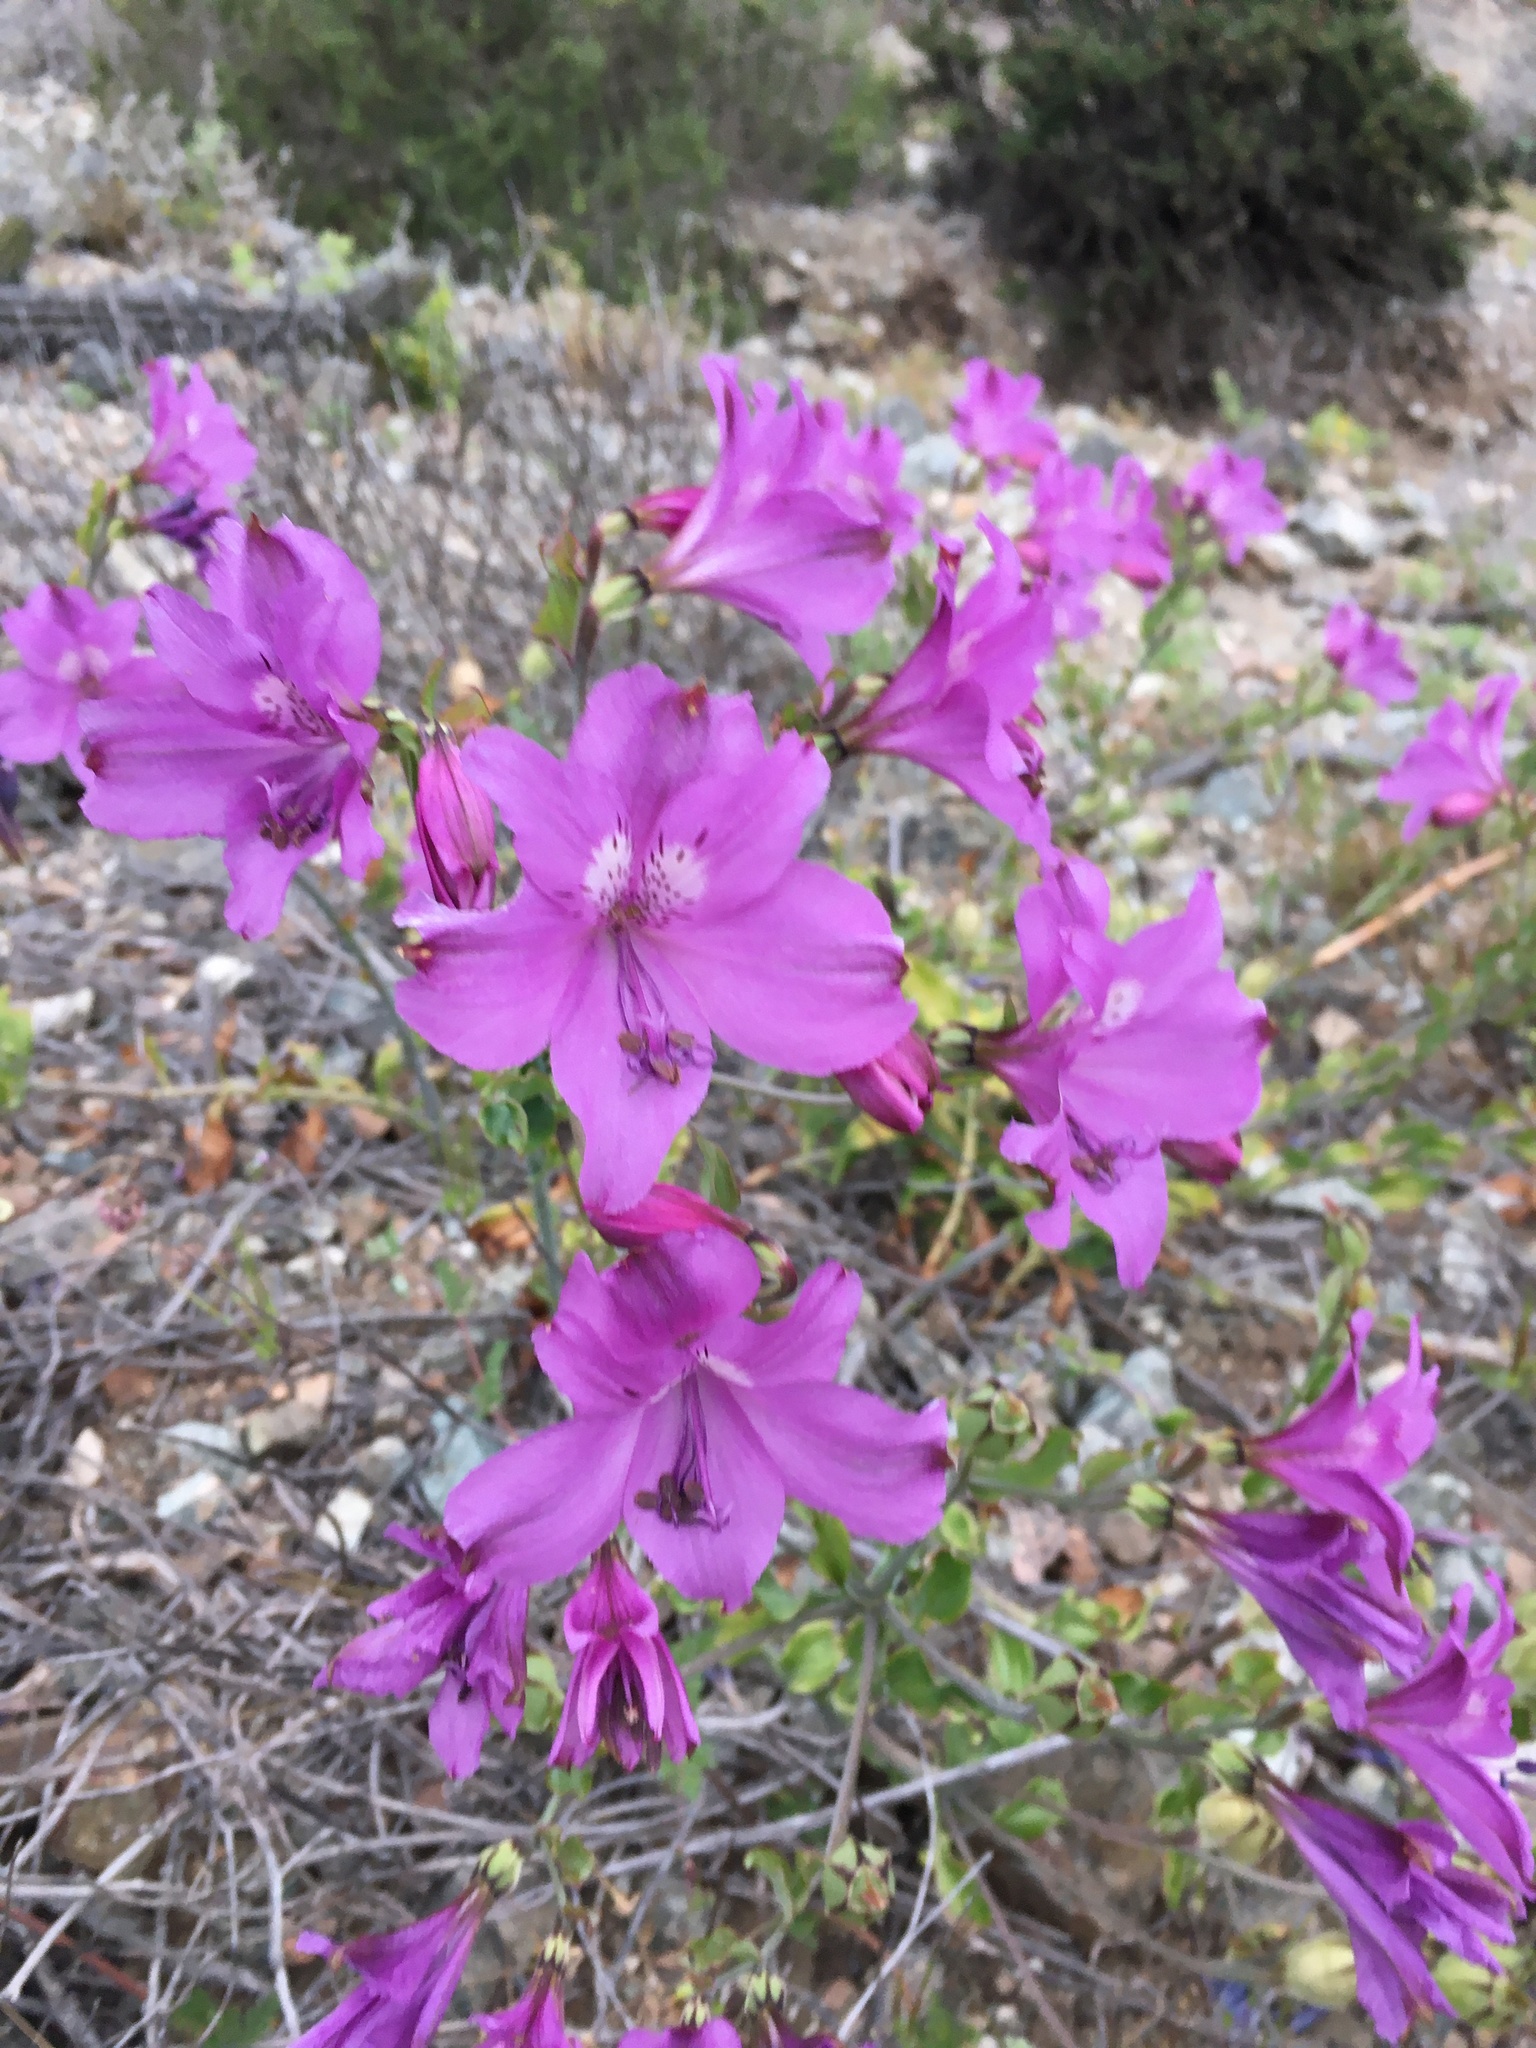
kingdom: Plantae
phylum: Tracheophyta
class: Liliopsida
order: Liliales
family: Alstroemeriaceae
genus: Alstroemeria
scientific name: Alstroemeria violacea
